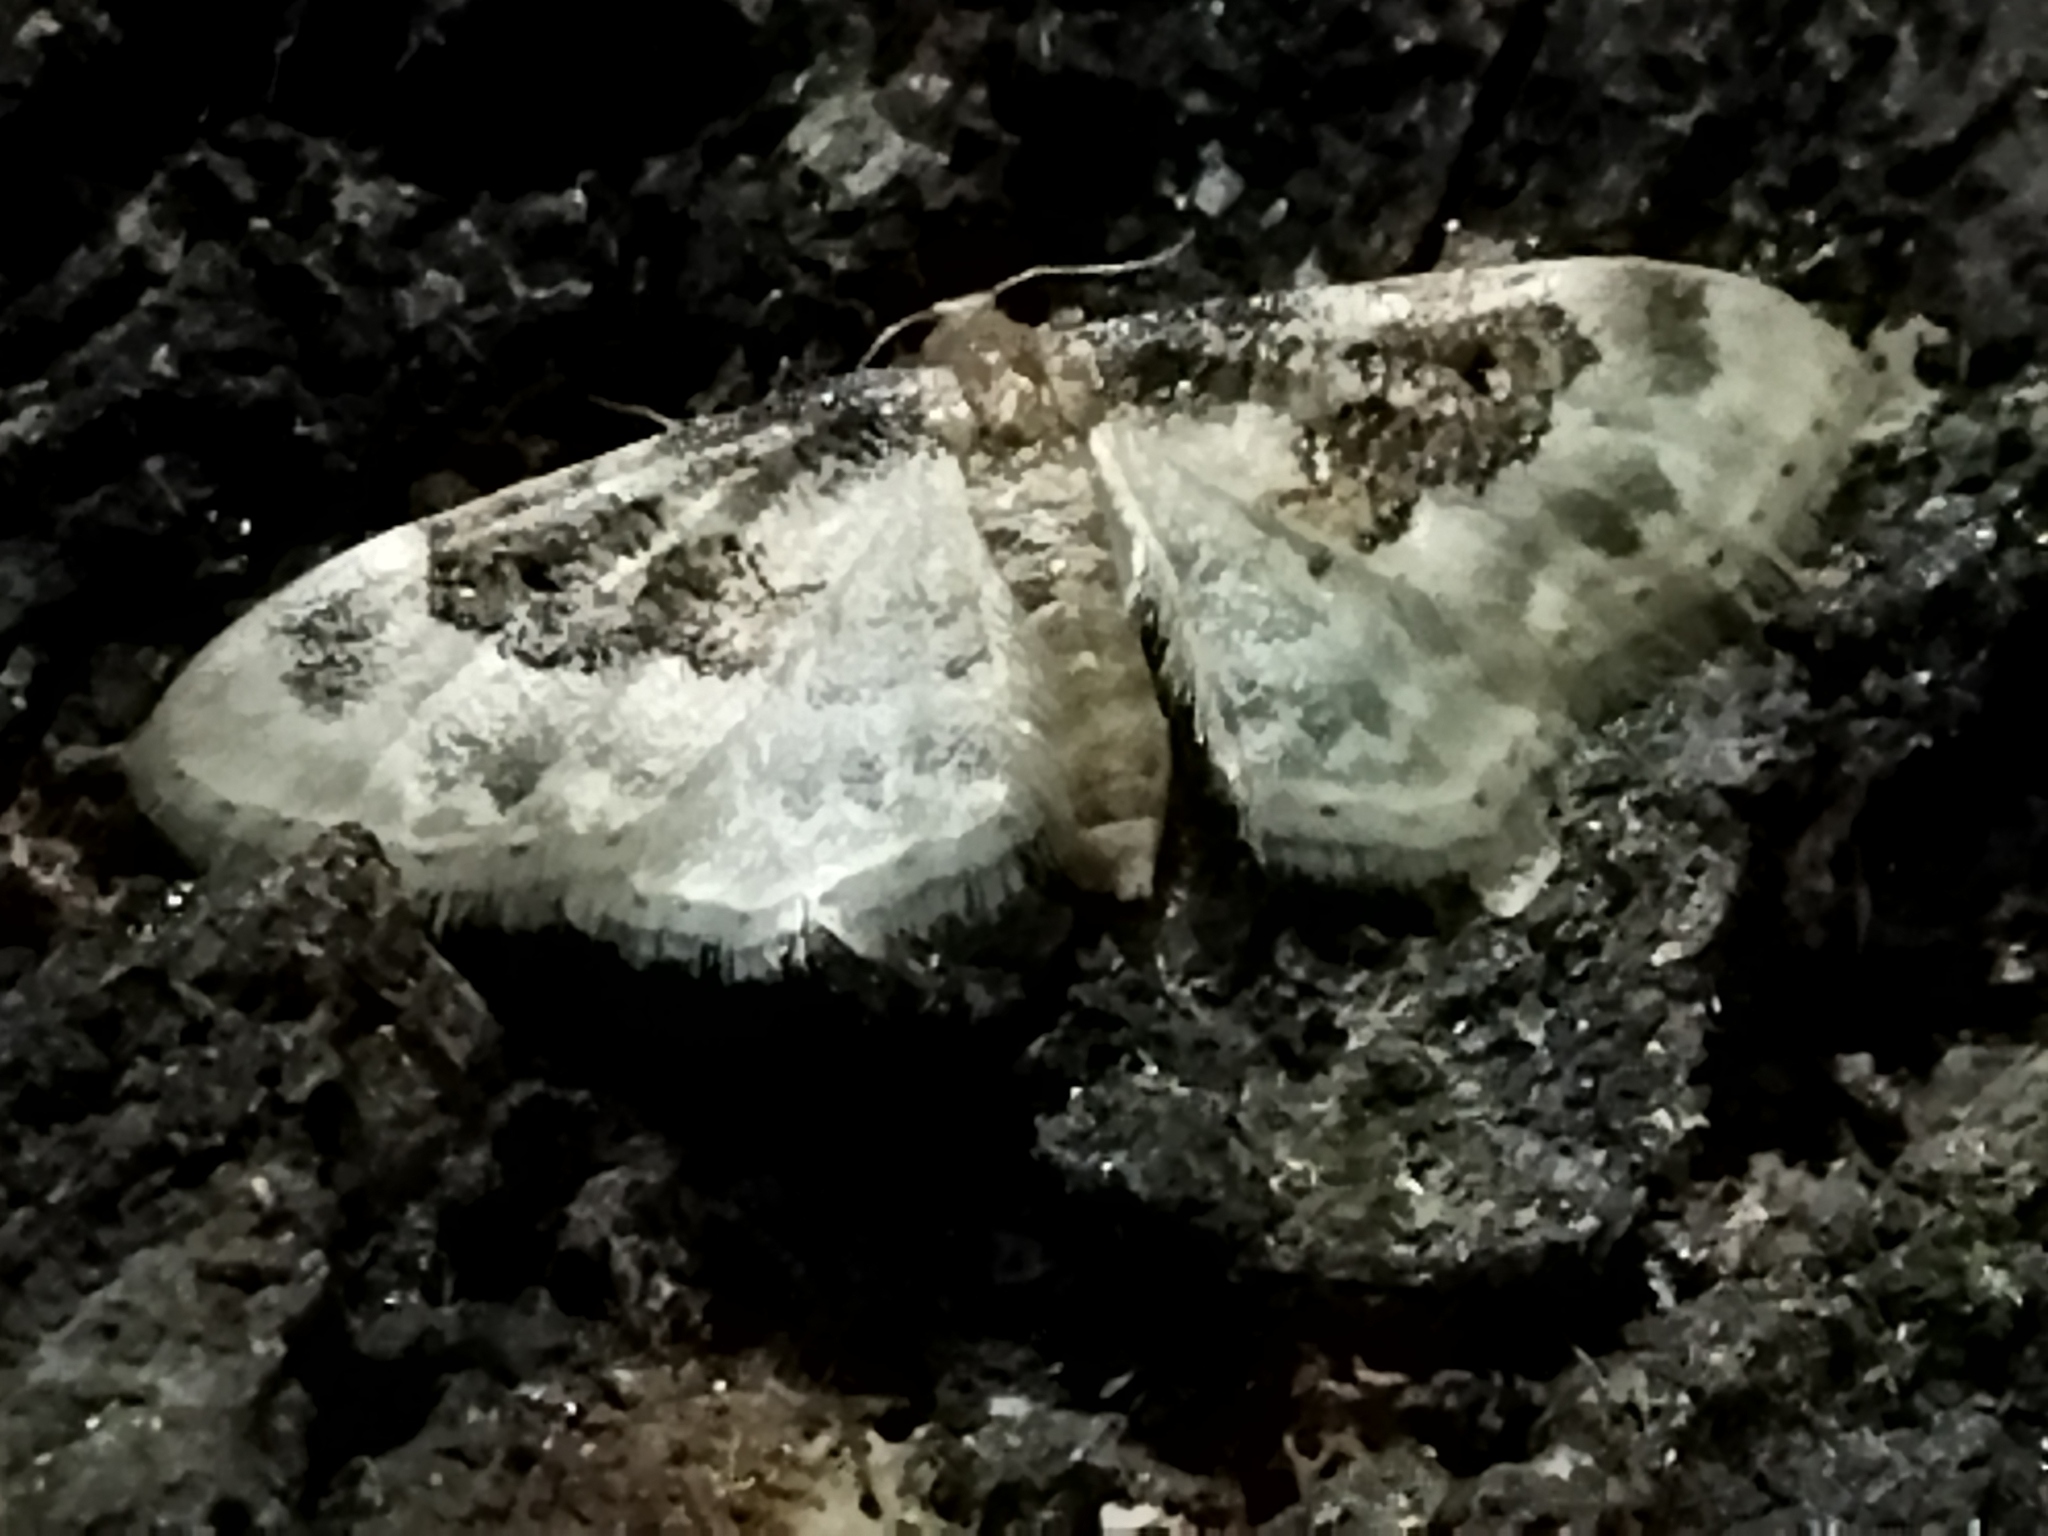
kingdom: Animalia
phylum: Arthropoda
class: Insecta
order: Lepidoptera
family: Geometridae
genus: Idaea
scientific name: Idaea rusticata
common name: Least carpet
